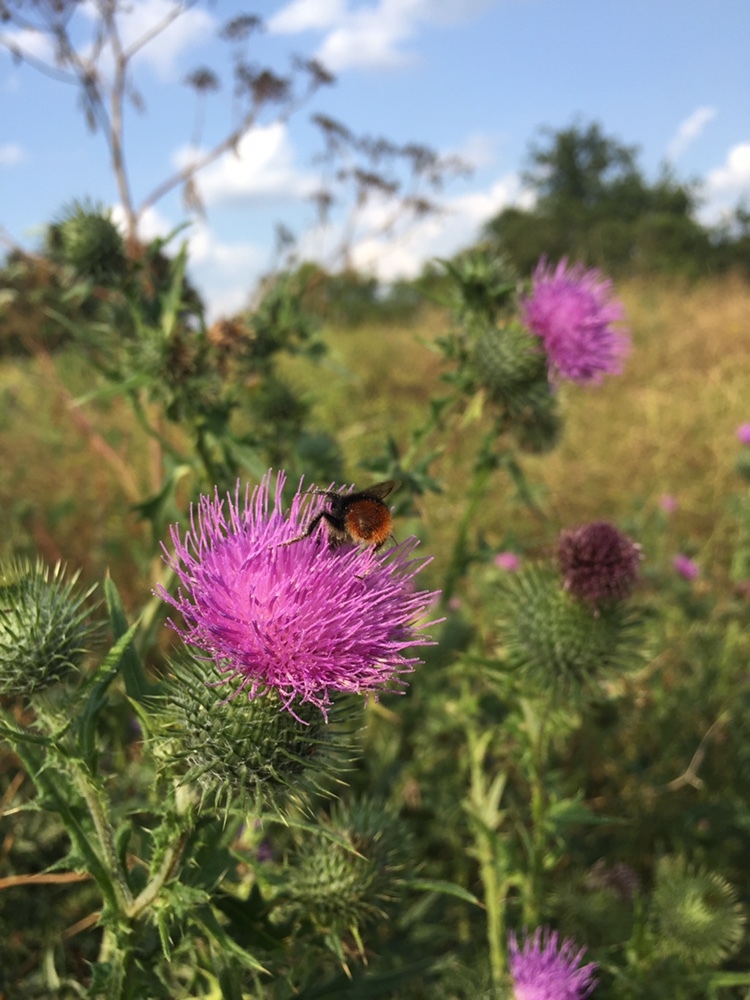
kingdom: Plantae
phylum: Tracheophyta
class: Magnoliopsida
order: Asterales
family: Asteraceae
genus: Cirsium
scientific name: Cirsium vulgare
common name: Bull thistle
